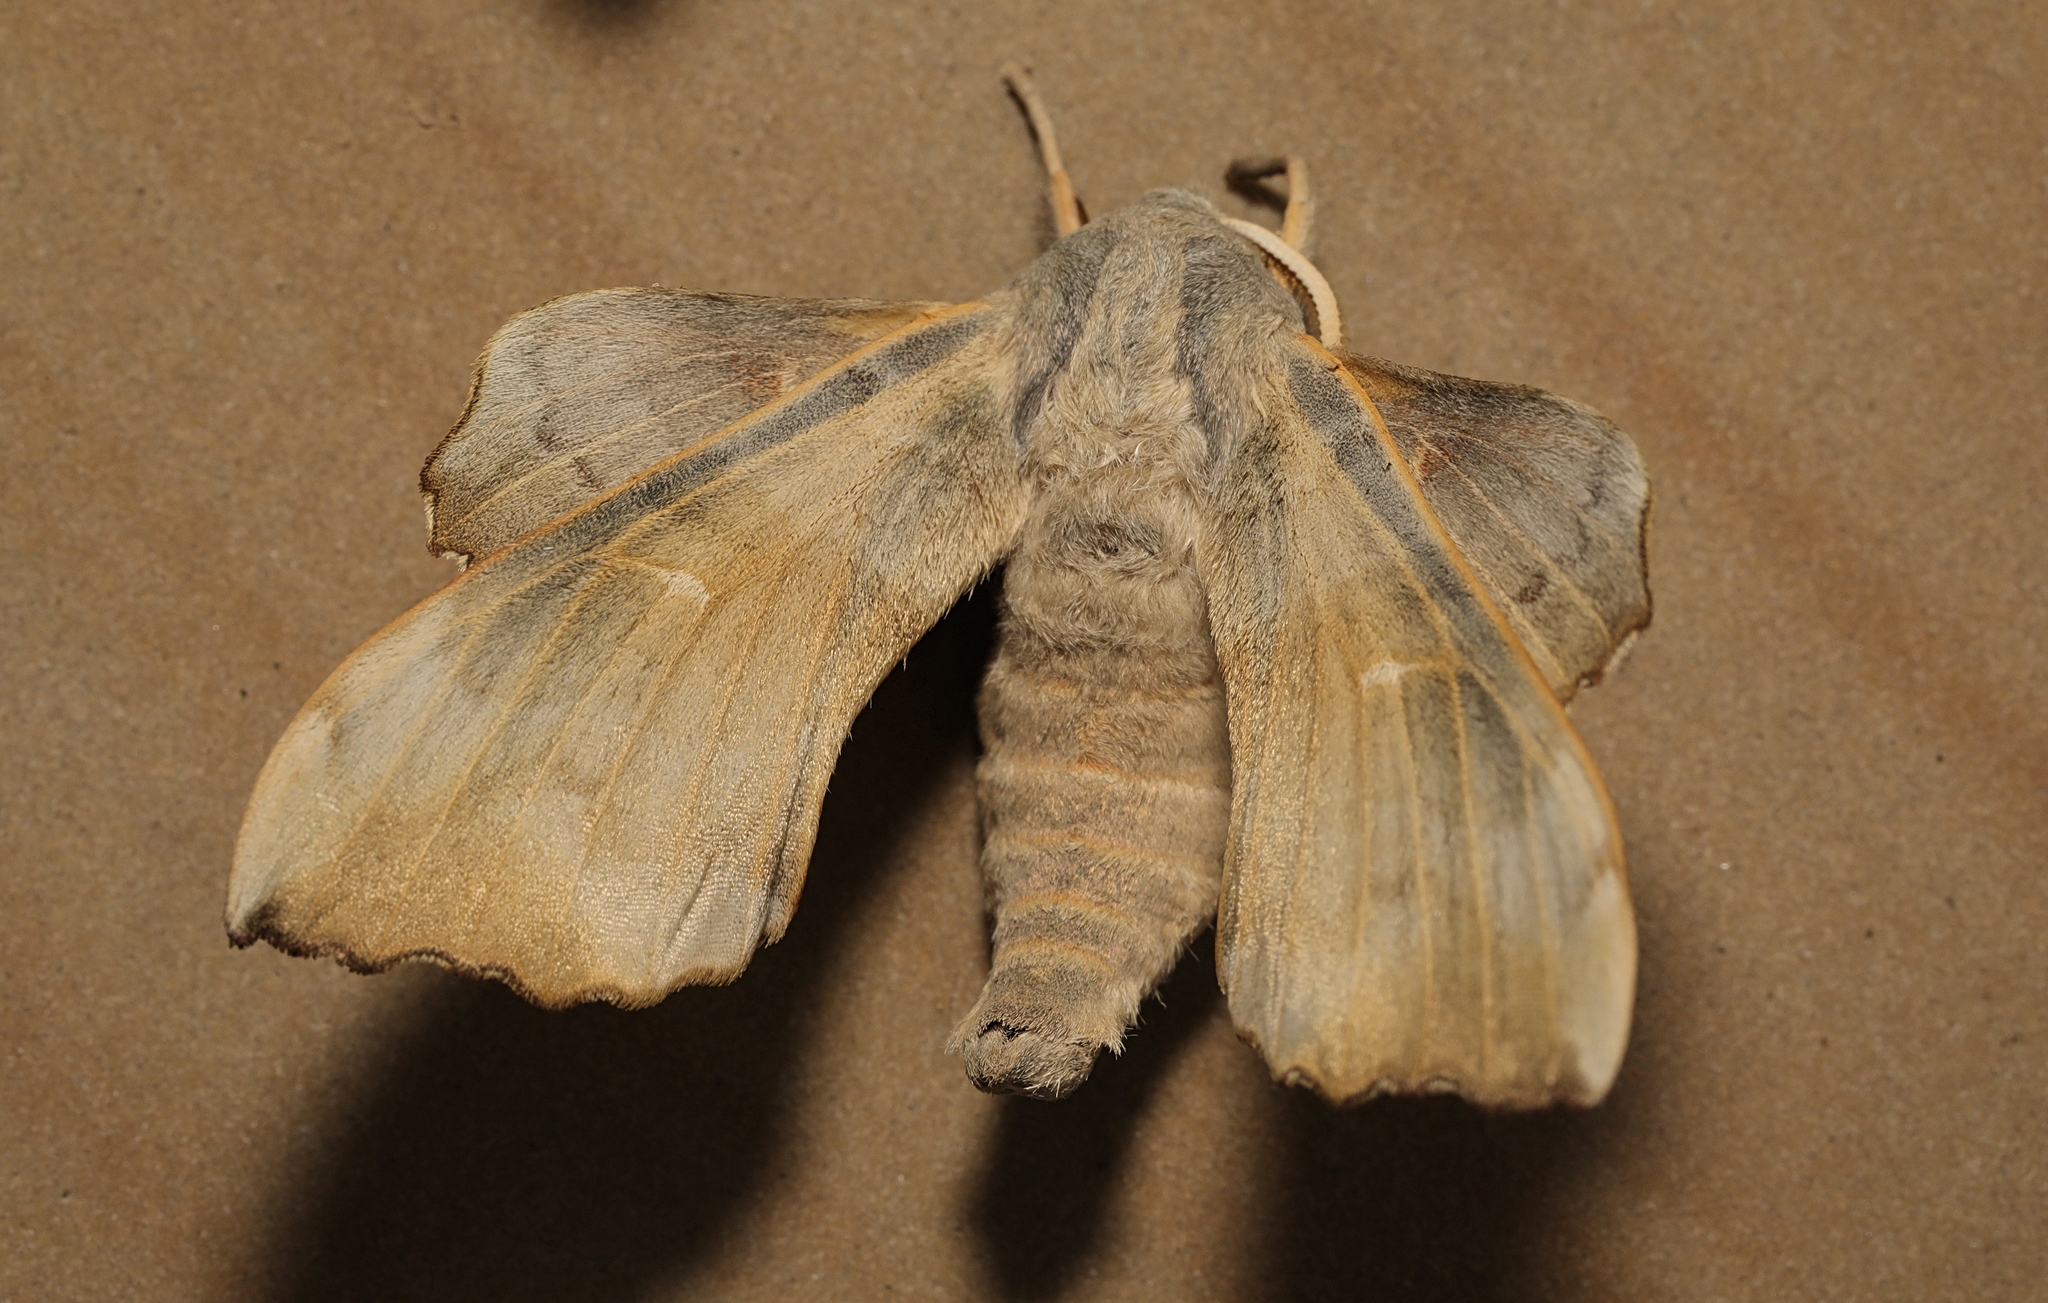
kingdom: Animalia
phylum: Arthropoda
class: Insecta
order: Lepidoptera
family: Sphingidae
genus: Laothoe
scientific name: Laothoe populi
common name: Poplar hawk-moth
